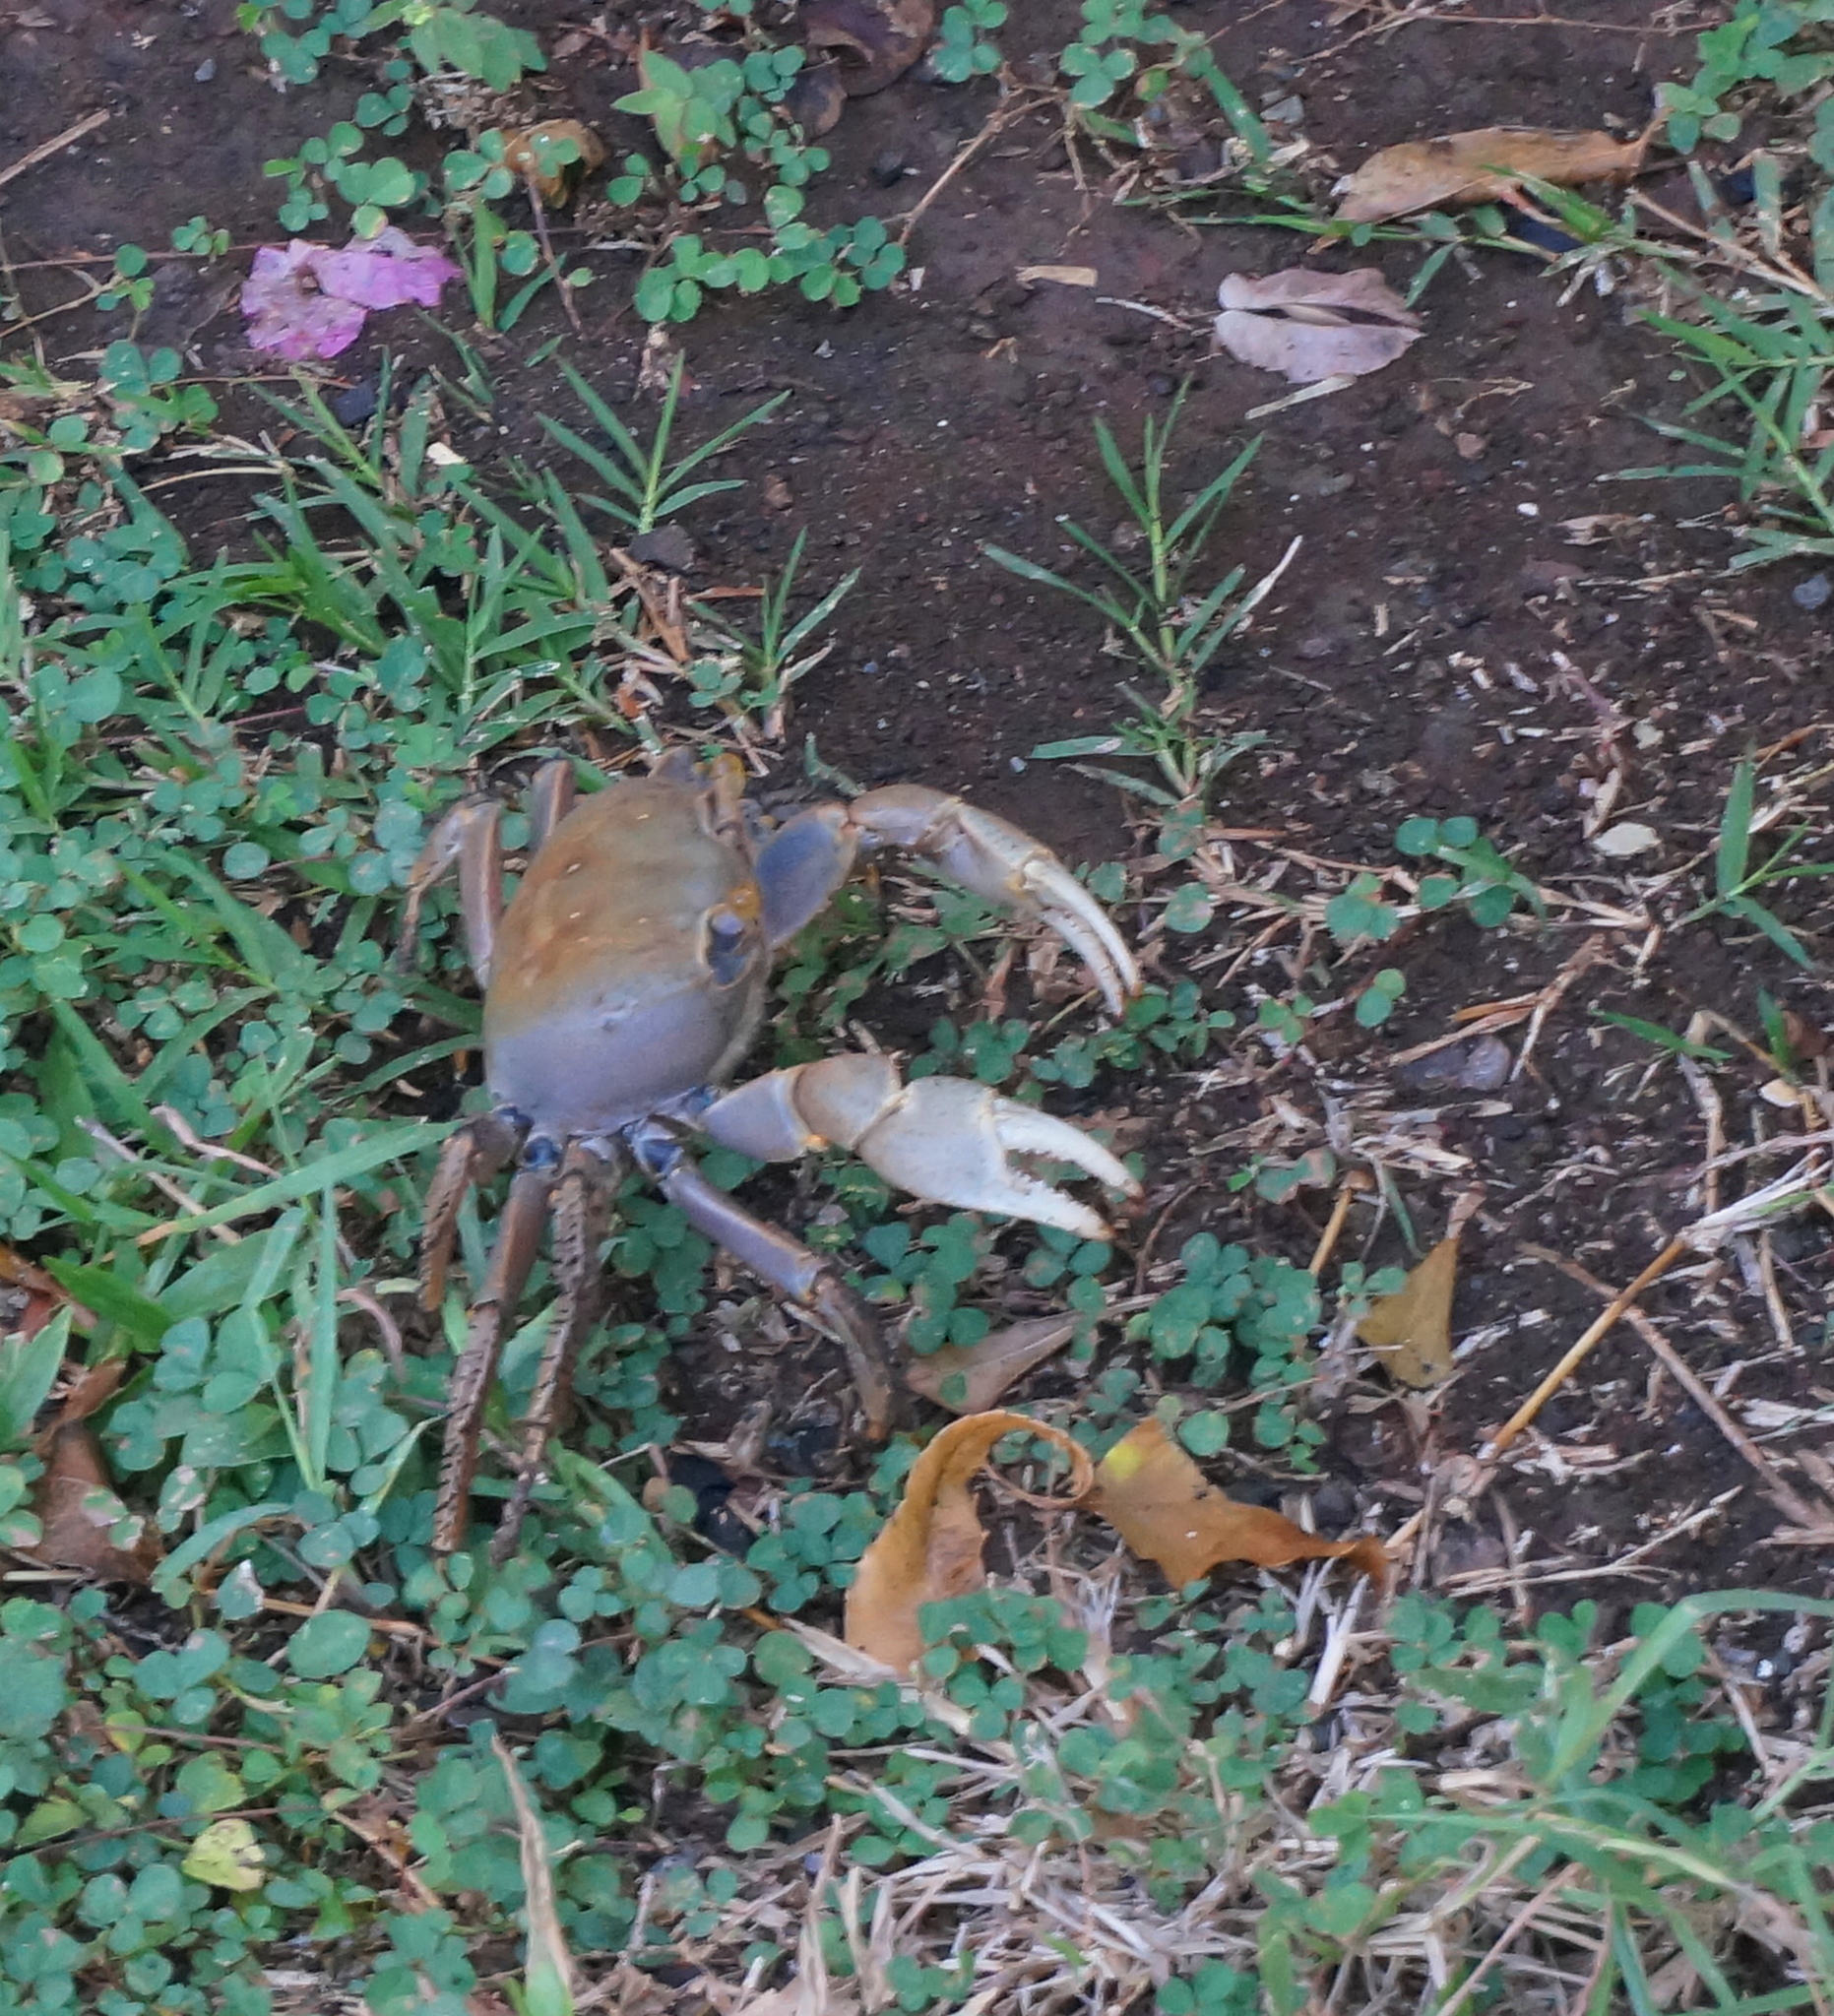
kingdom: Animalia
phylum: Arthropoda
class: Malacostraca
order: Decapoda
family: Gecarcinidae
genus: Cardisoma
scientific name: Cardisoma guanhumi
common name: Great land crab
